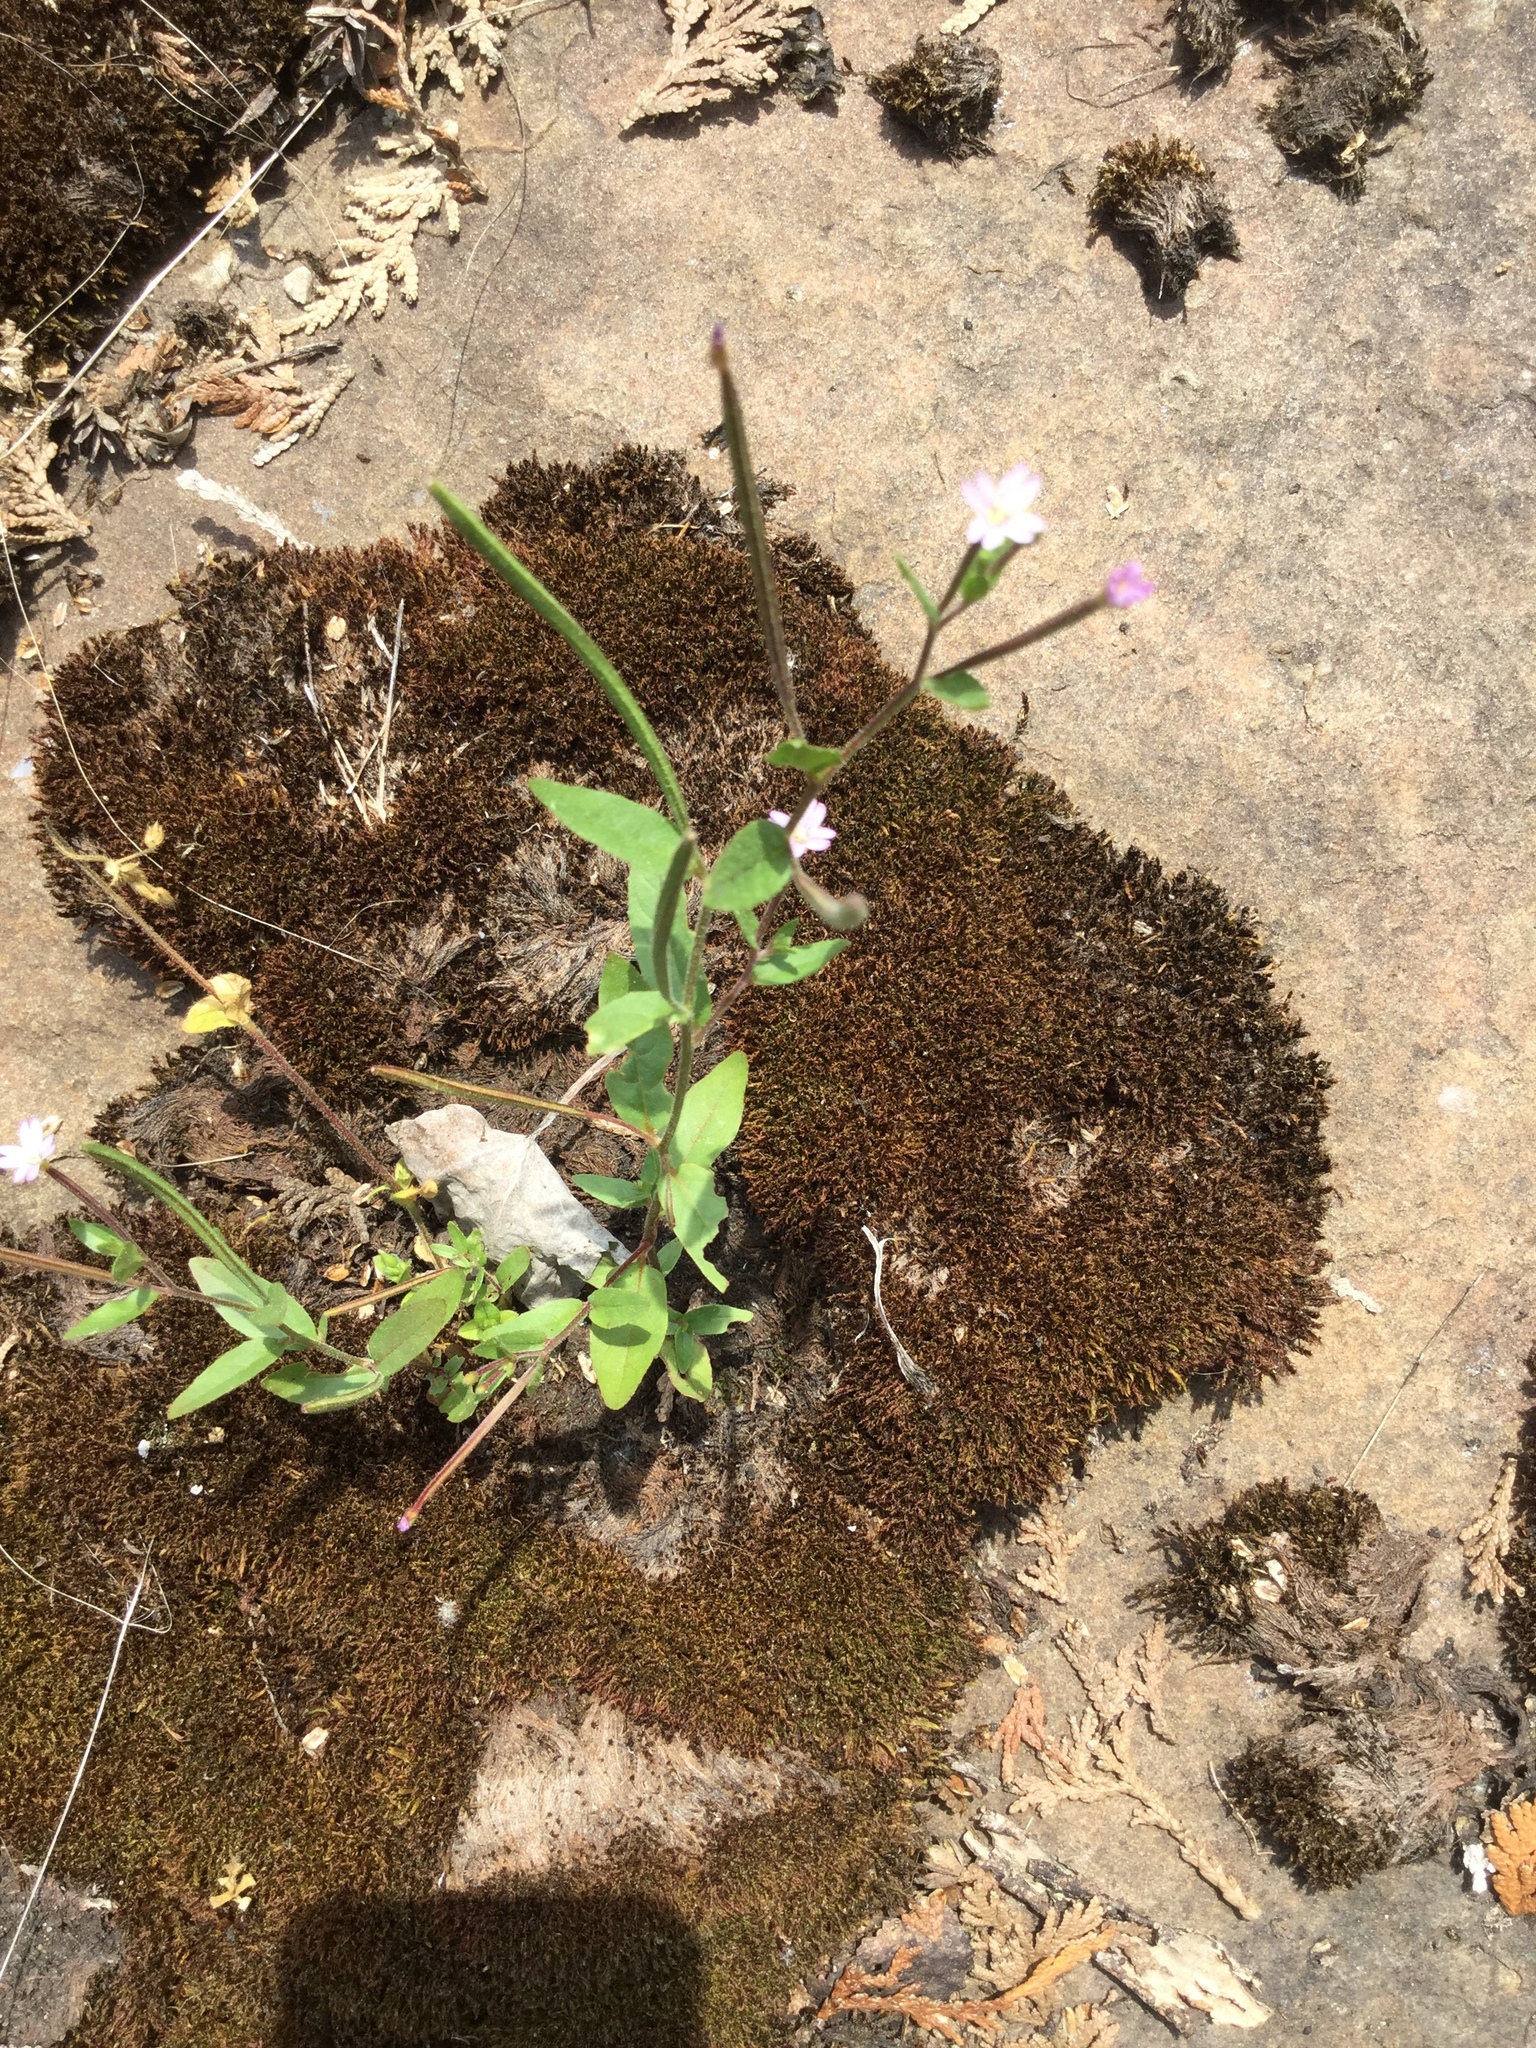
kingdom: Plantae
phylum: Tracheophyta
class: Magnoliopsida
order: Myrtales
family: Onagraceae
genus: Epilobium
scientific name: Epilobium ciliatum
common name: American willowherb
